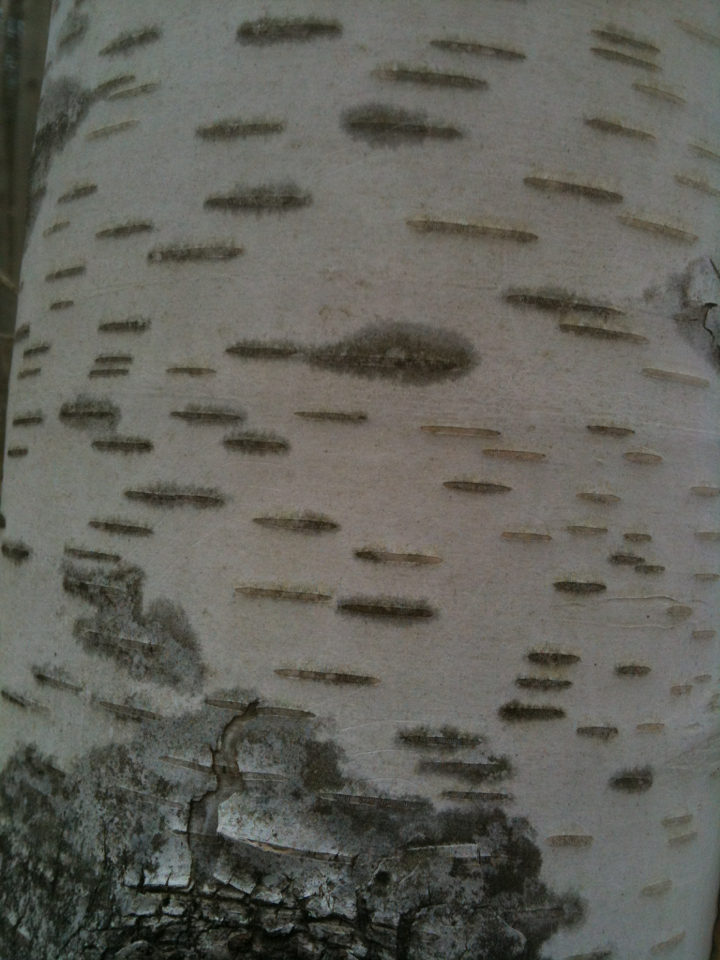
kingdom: Plantae
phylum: Tracheophyta
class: Magnoliopsida
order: Fagales
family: Betulaceae
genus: Betula
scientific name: Betula papyrifera
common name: Paper birch
